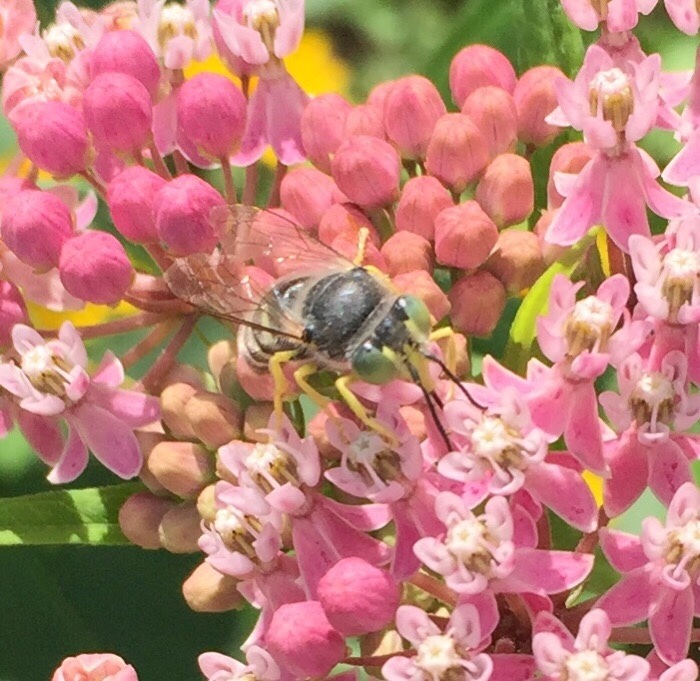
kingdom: Animalia
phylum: Arthropoda
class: Insecta
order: Hymenoptera
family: Crabronidae
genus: Bembix
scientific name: Bembix americana
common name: American sand wasp
